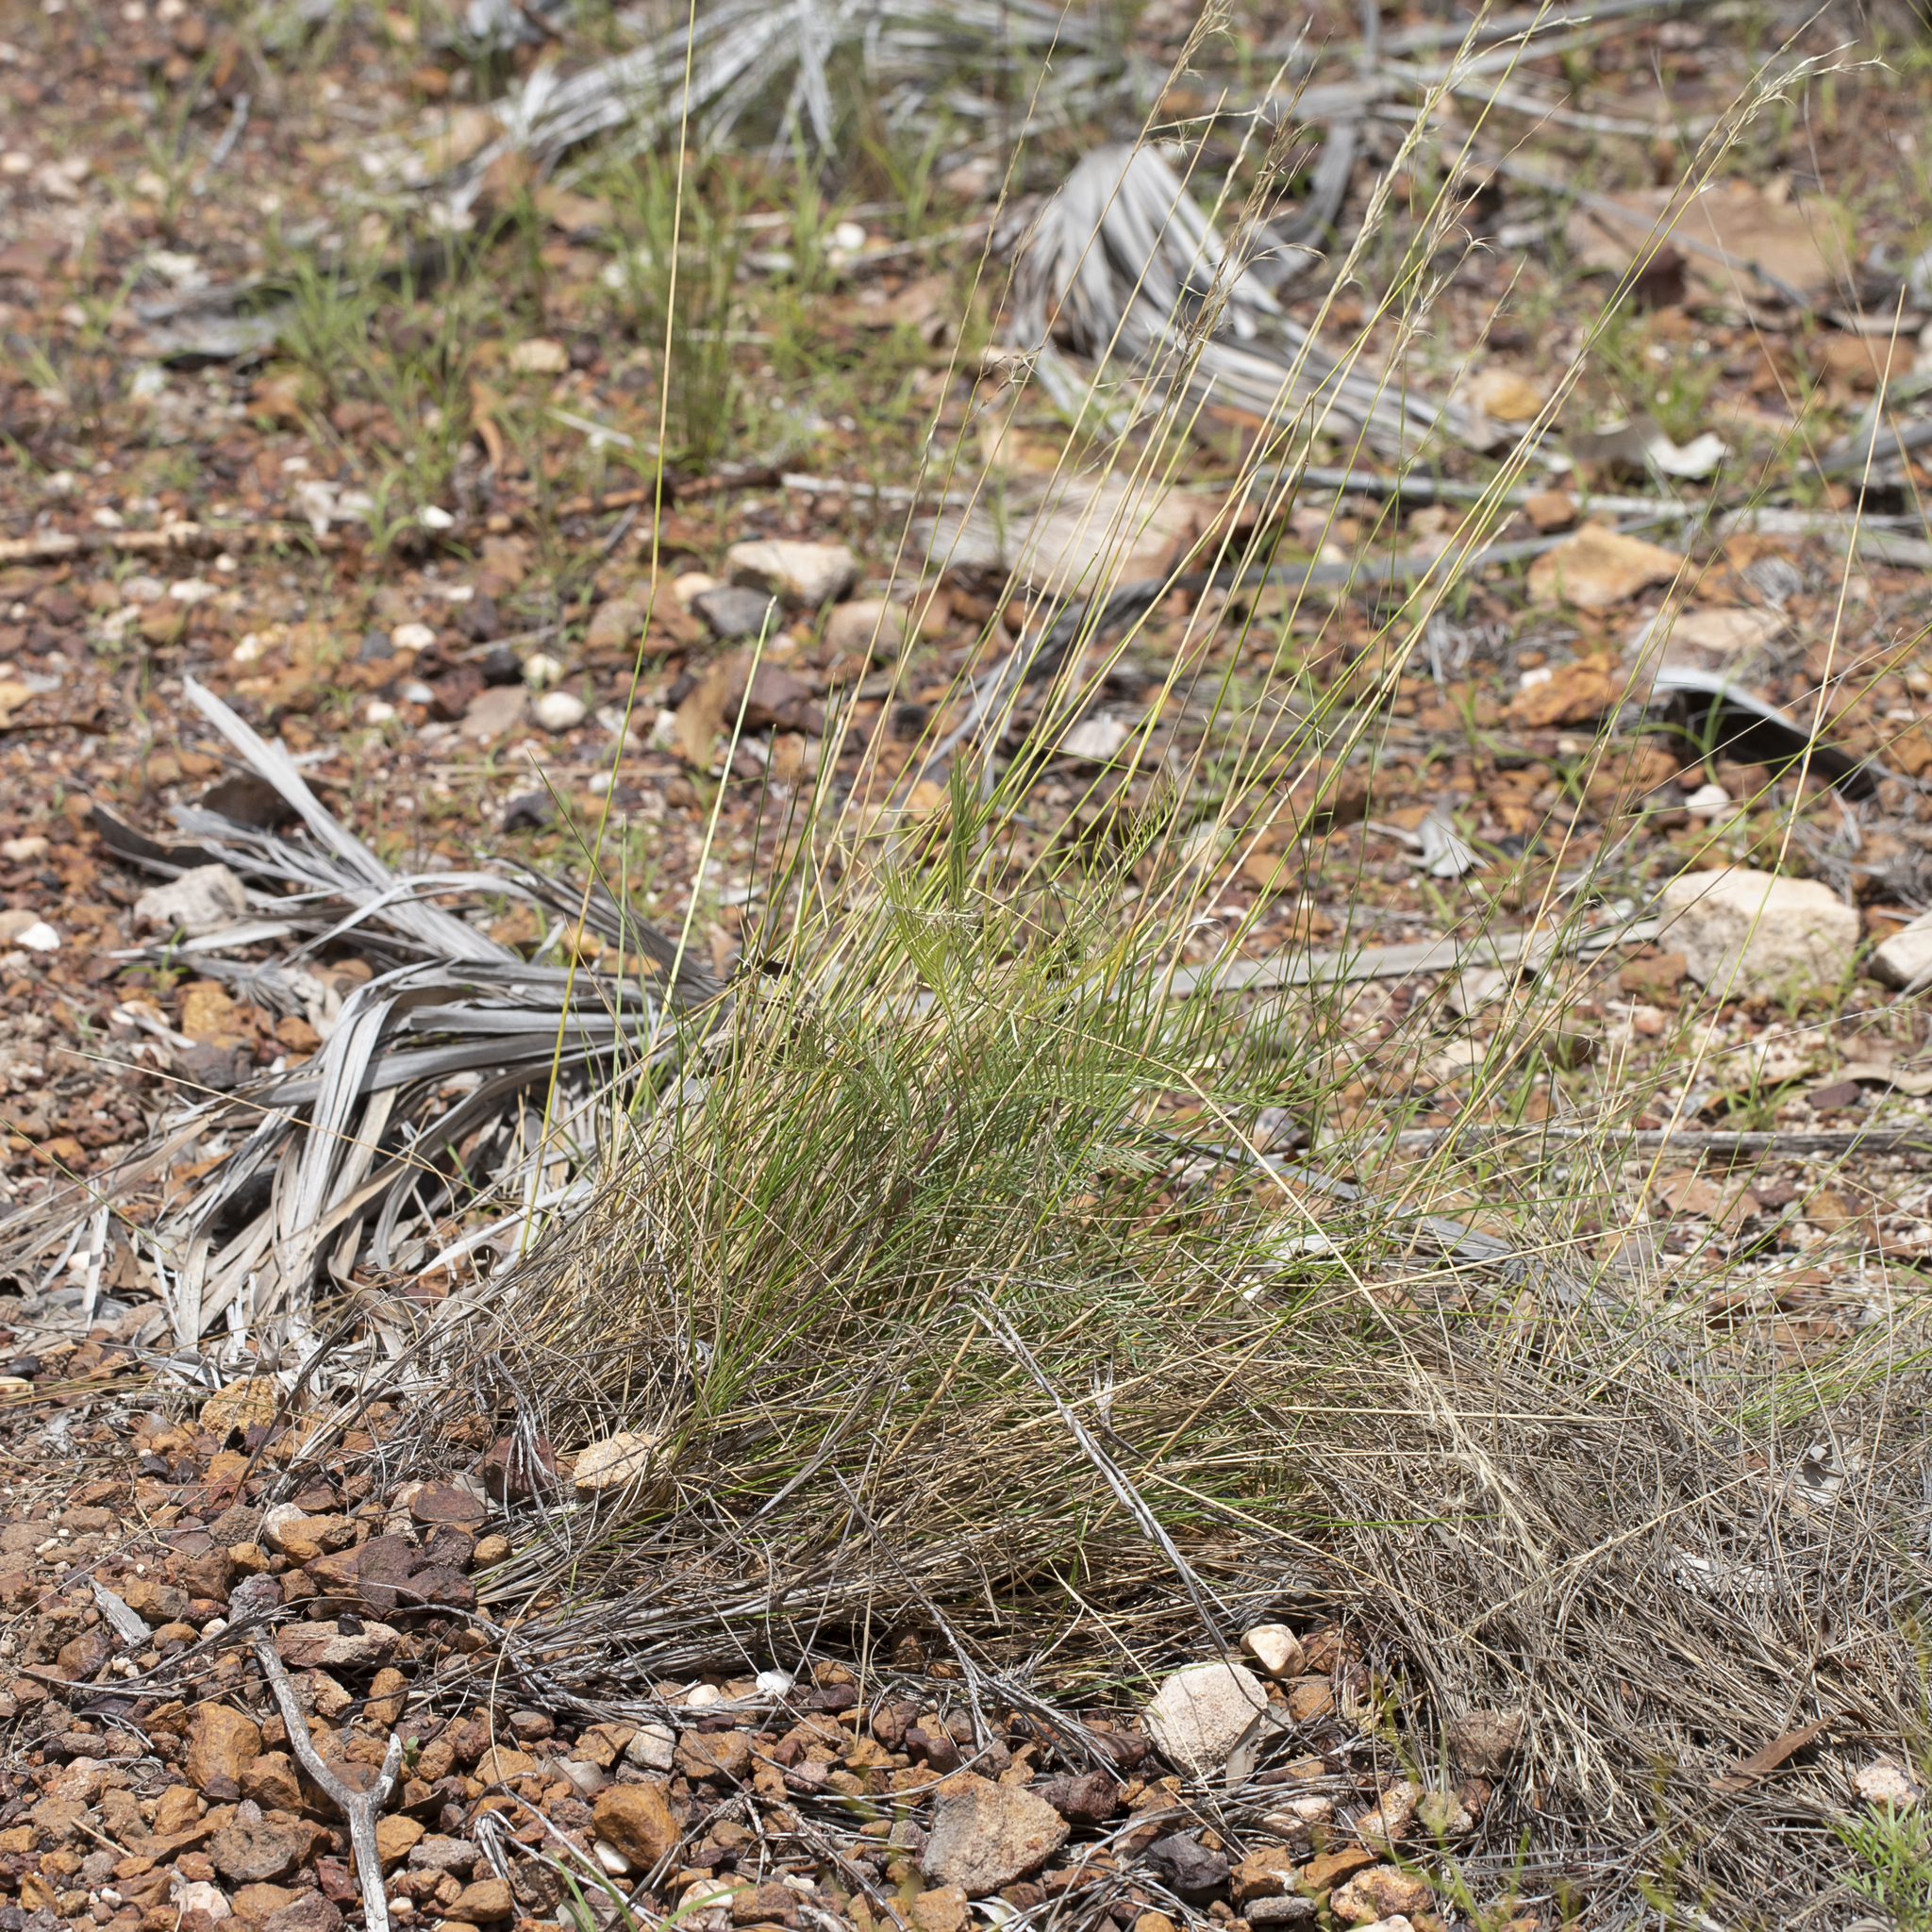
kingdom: Plantae
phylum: Tracheophyta
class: Liliopsida
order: Poales
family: Poaceae
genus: Triodia
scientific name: Triodia bitextura
